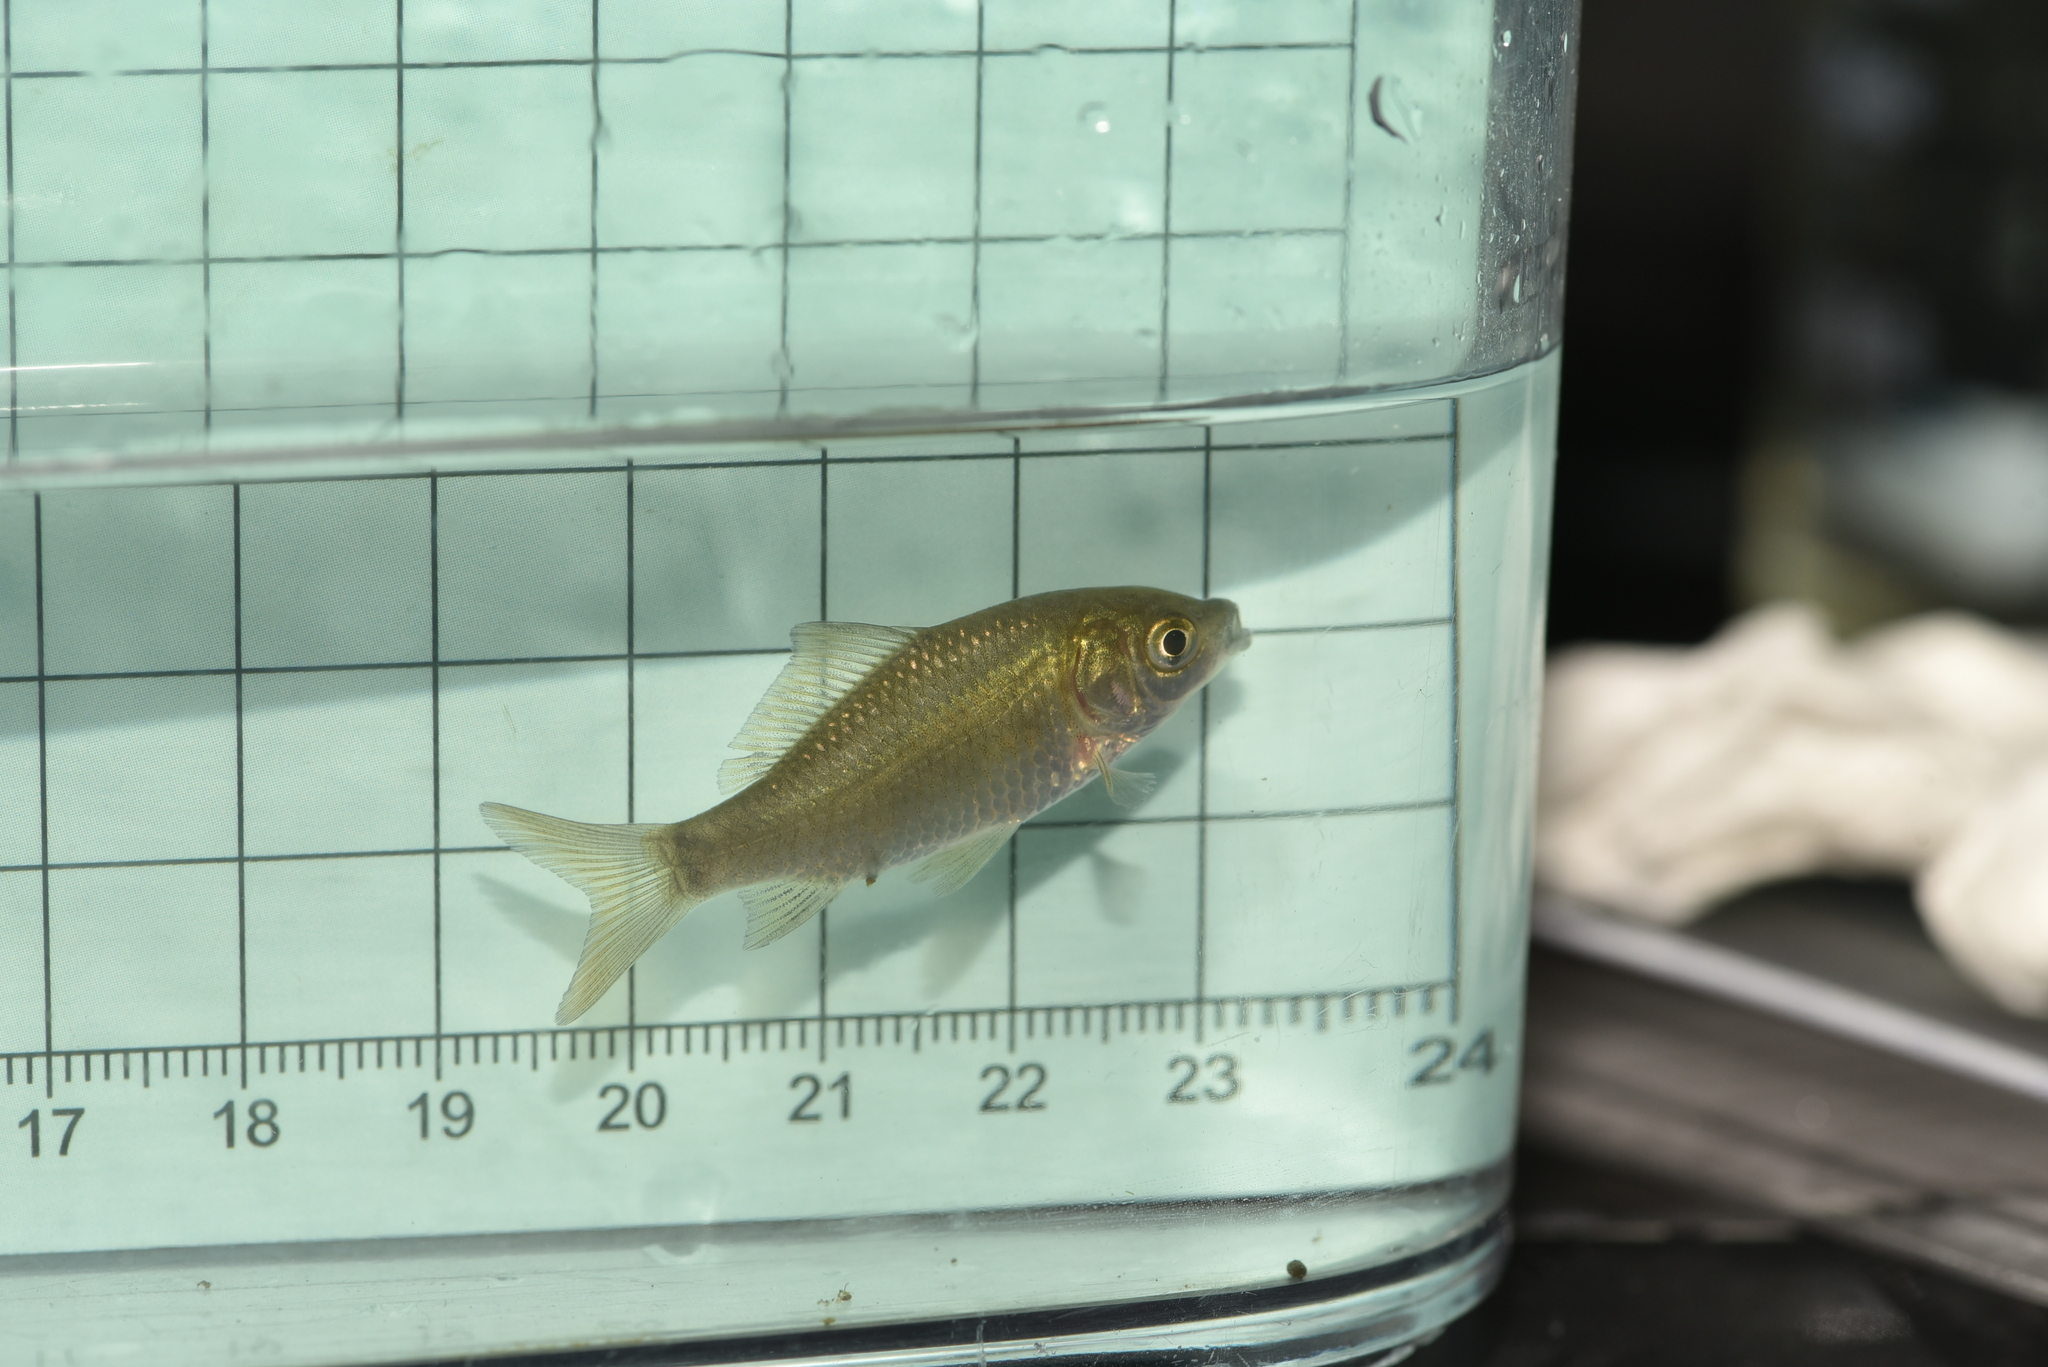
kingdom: Animalia
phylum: Chordata
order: Cypriniformes
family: Cyprinidae
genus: Carassius
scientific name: Carassius auratus
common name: Goldfish
